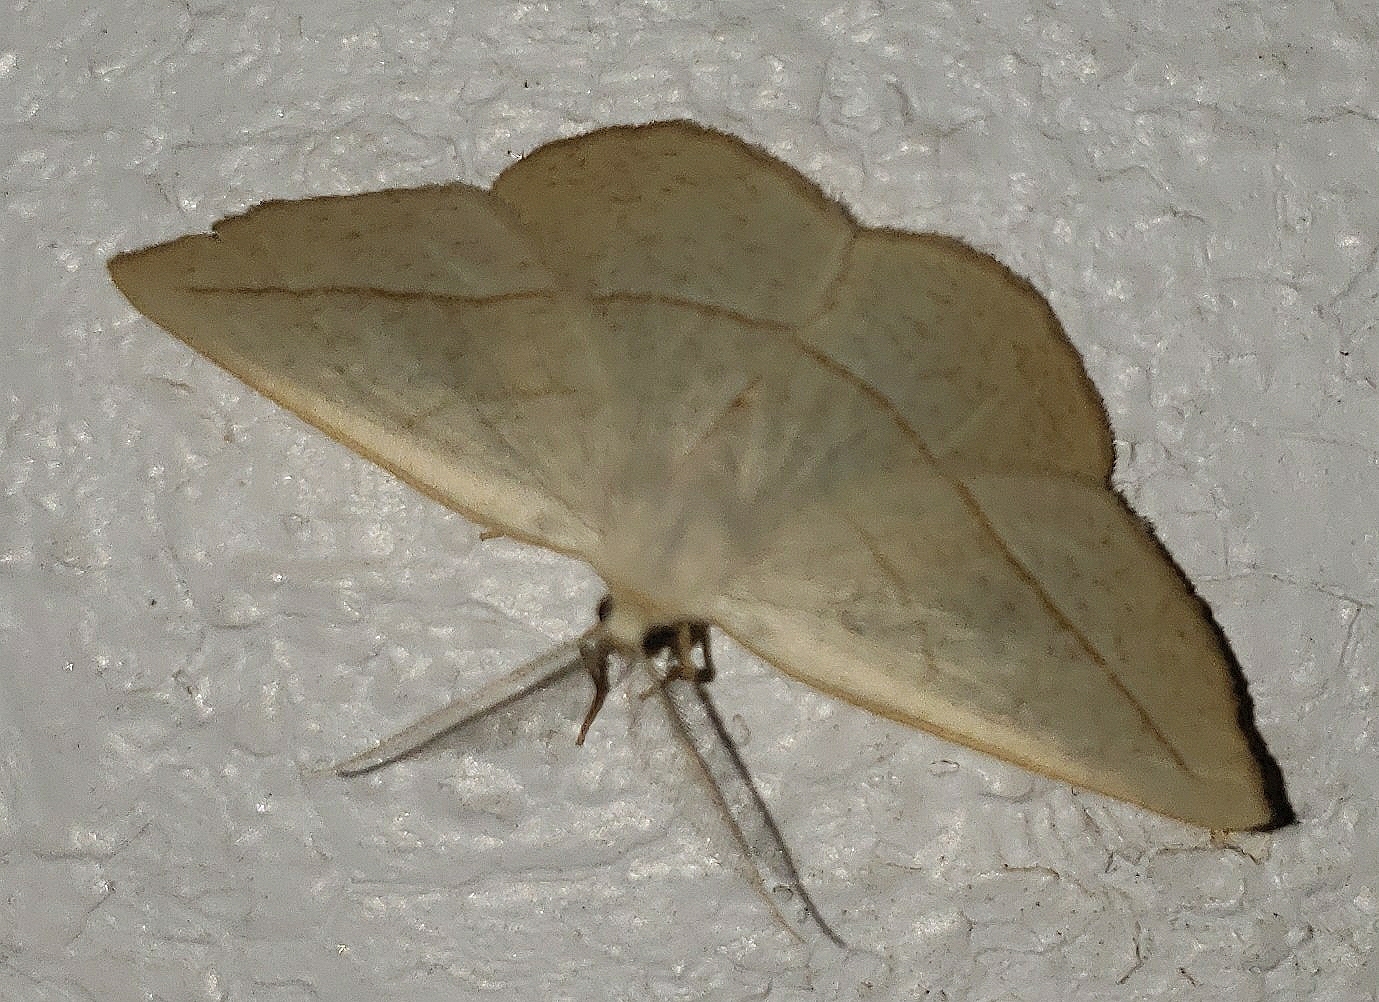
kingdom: Animalia
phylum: Arthropoda
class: Insecta
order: Lepidoptera
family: Geometridae
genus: Eusarca
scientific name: Eusarca confusaria
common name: Confused eusarca
